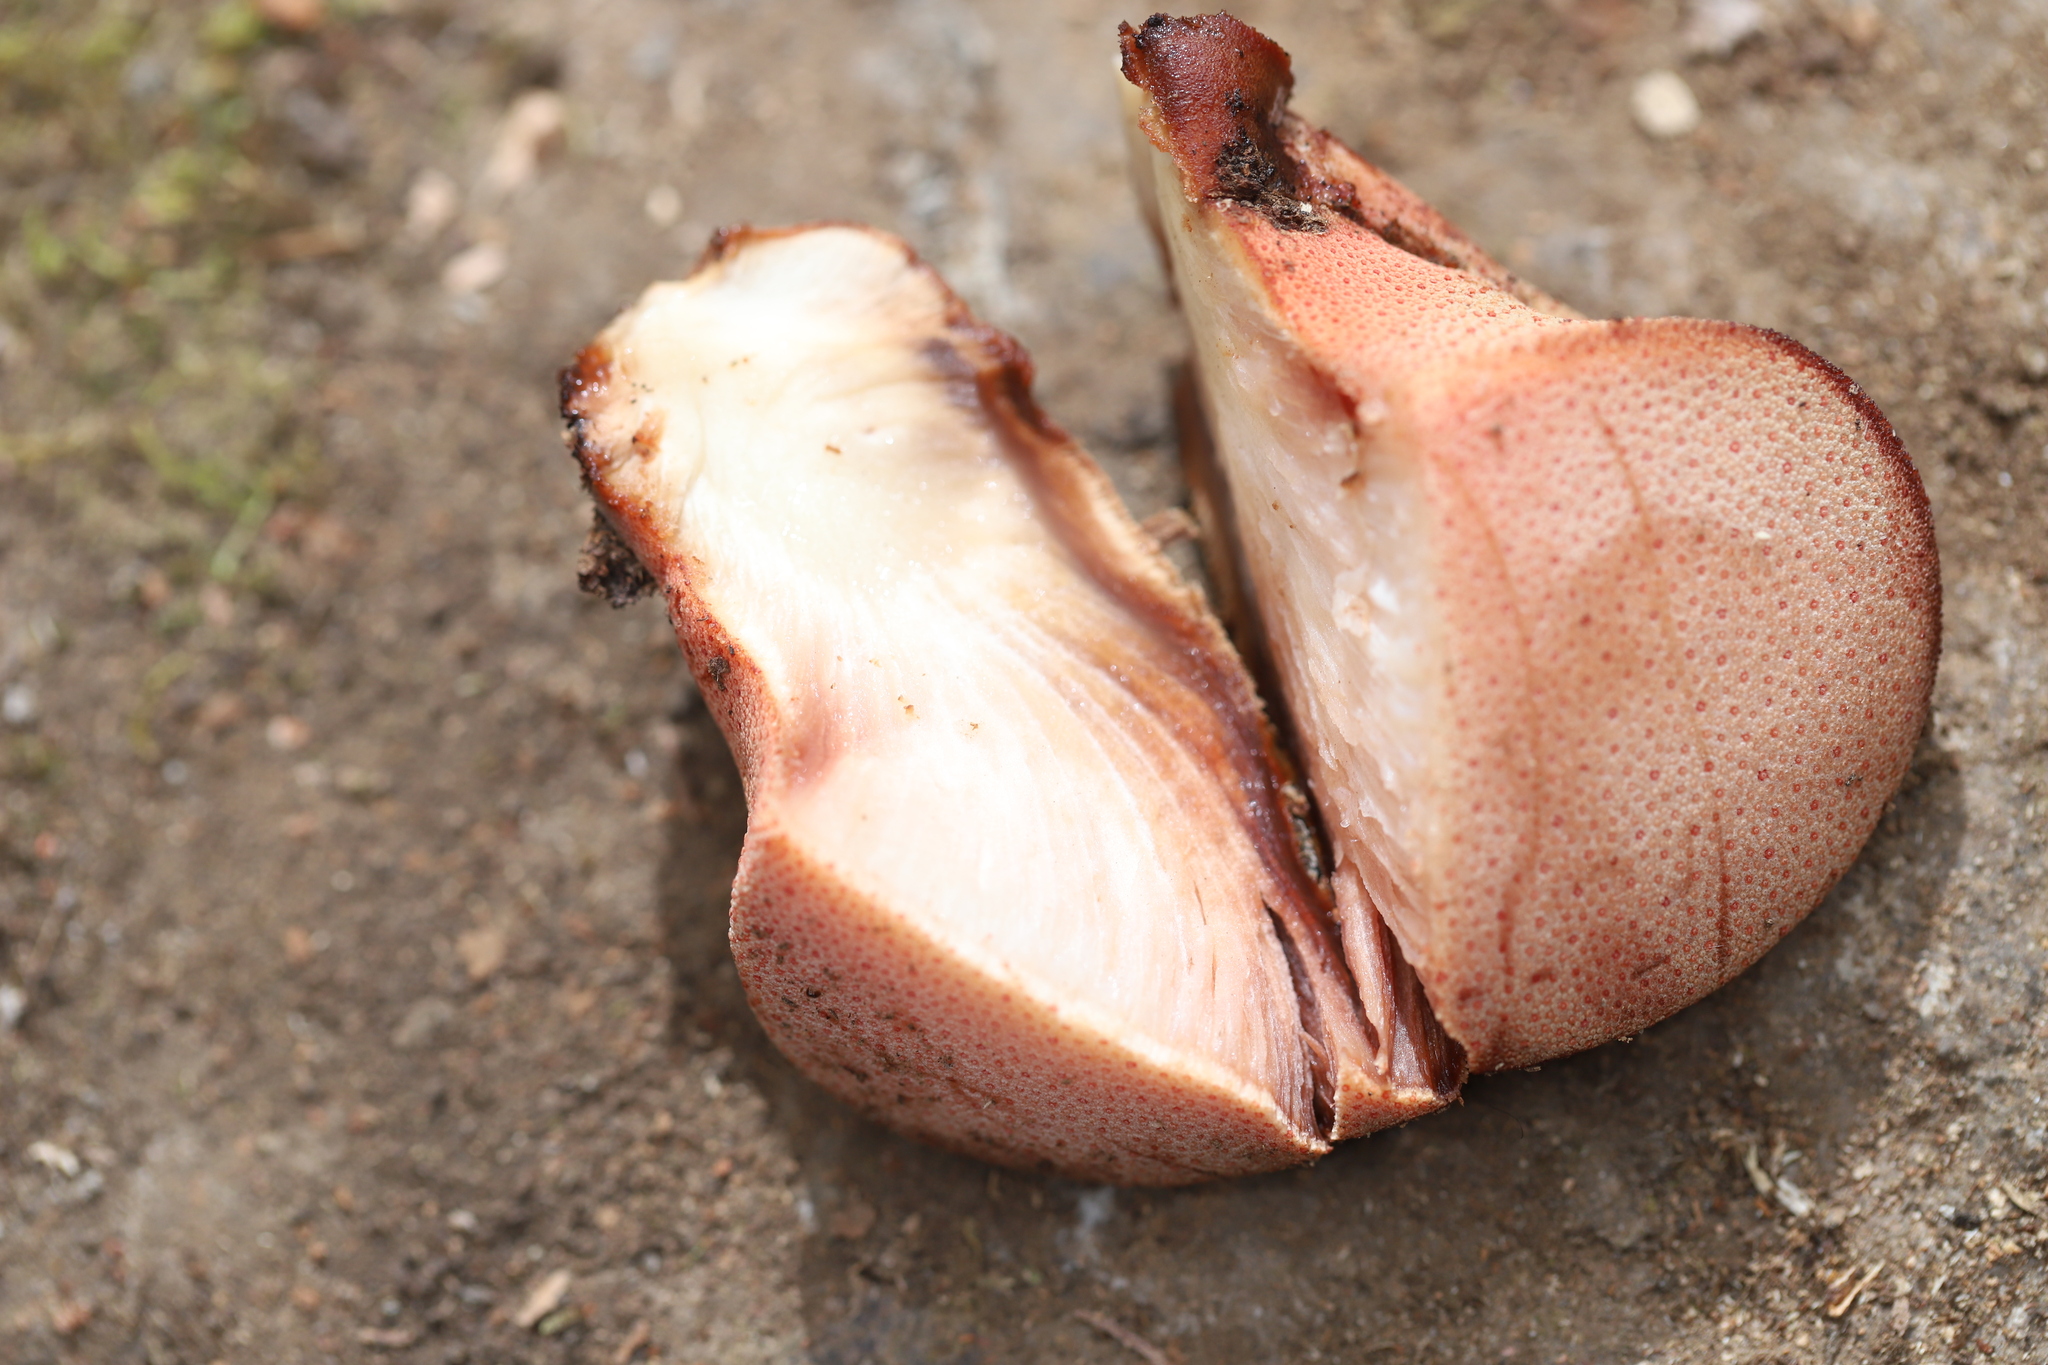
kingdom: Fungi
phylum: Basidiomycota
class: Agaricomycetes
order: Agaricales
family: Fistulinaceae
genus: Fistulina
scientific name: Fistulina antarctica
